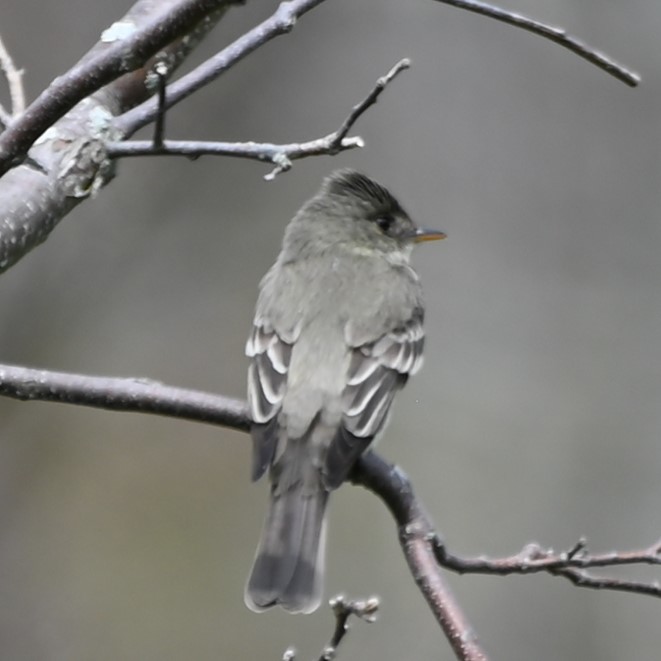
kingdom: Animalia
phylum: Chordata
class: Aves
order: Passeriformes
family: Tyrannidae
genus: Contopus
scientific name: Contopus virens
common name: Eastern wood-pewee
